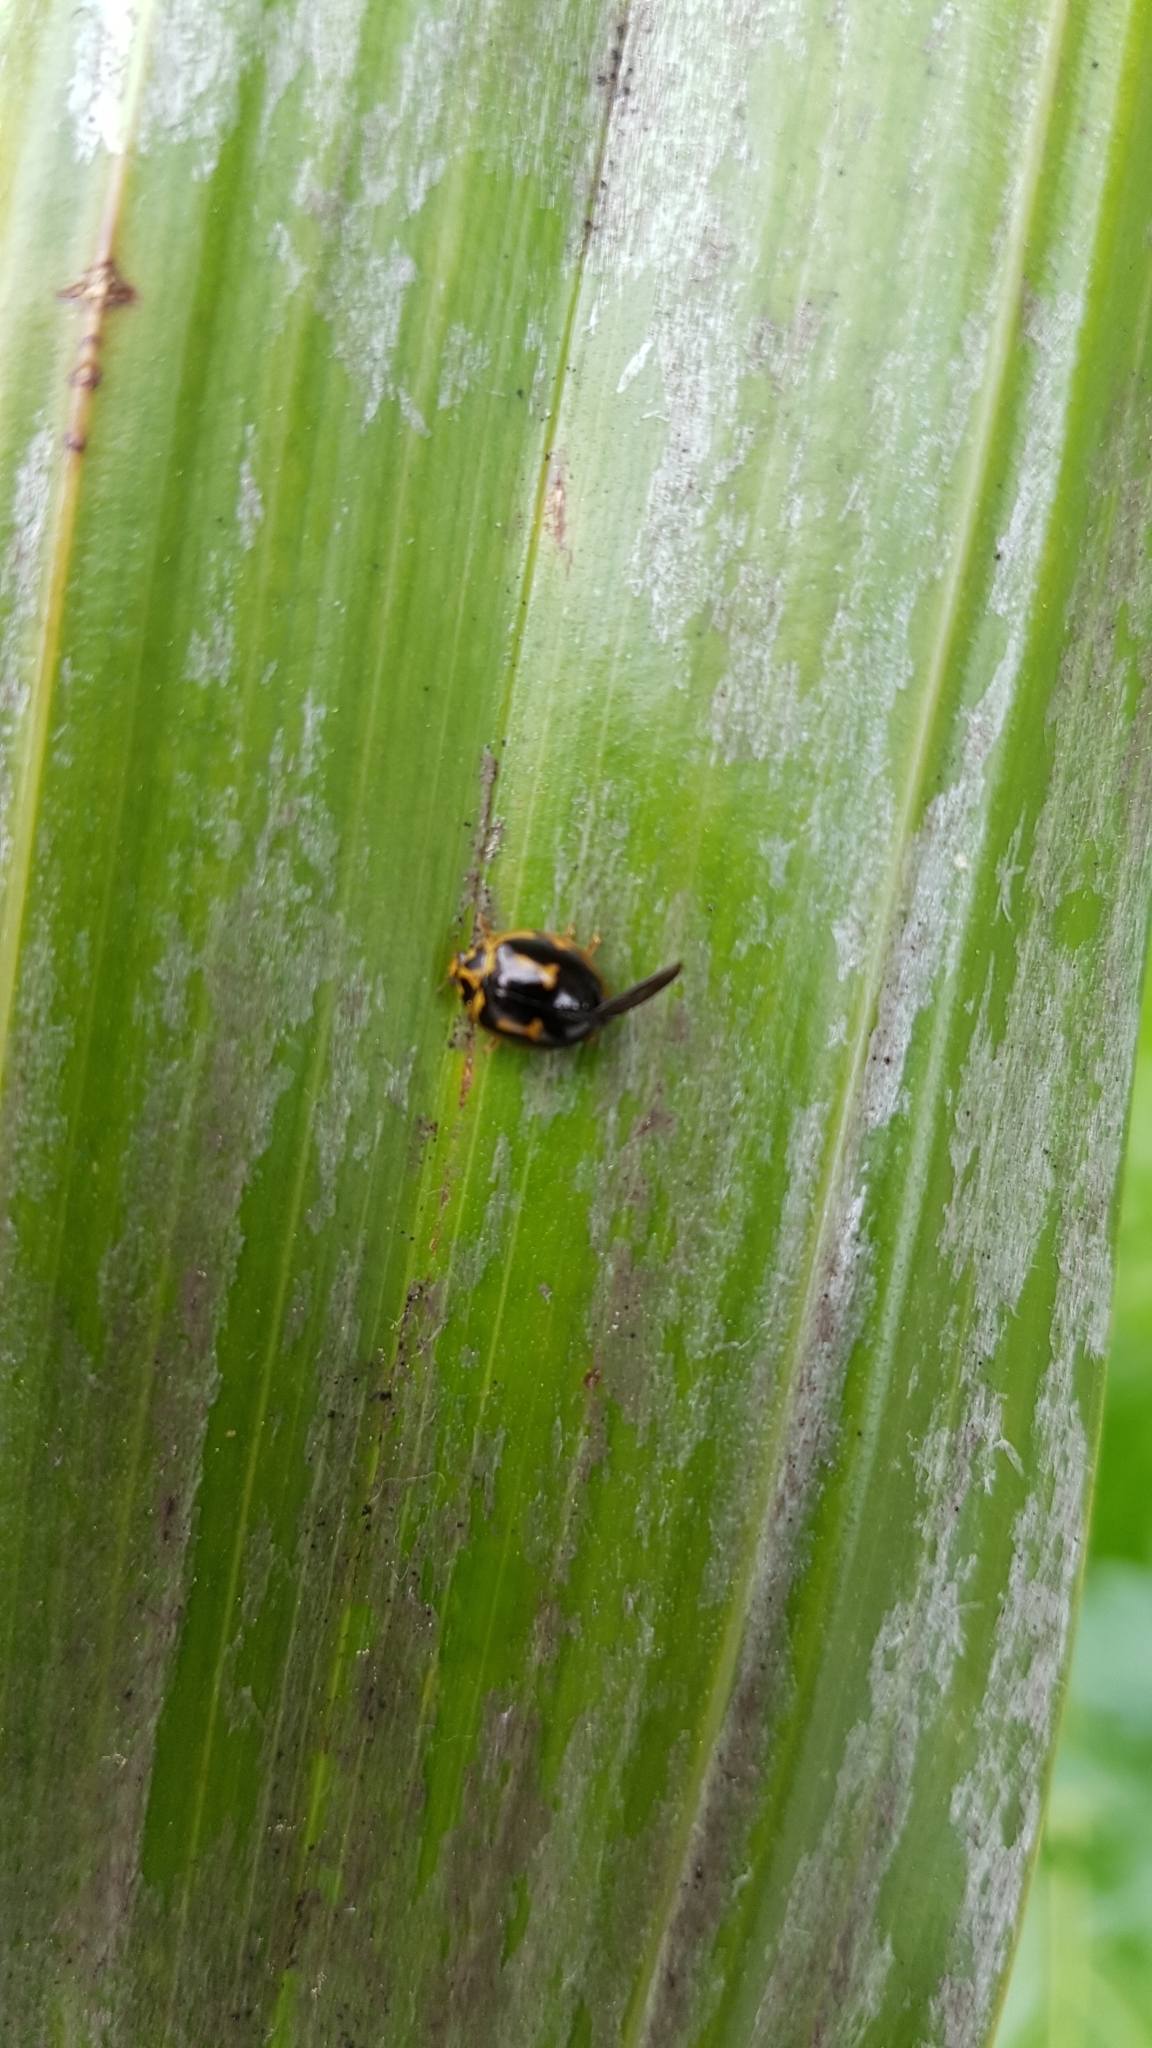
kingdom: Animalia
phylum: Arthropoda
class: Insecta
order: Coleoptera
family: Coccinellidae
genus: Harmonia
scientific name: Harmonia
